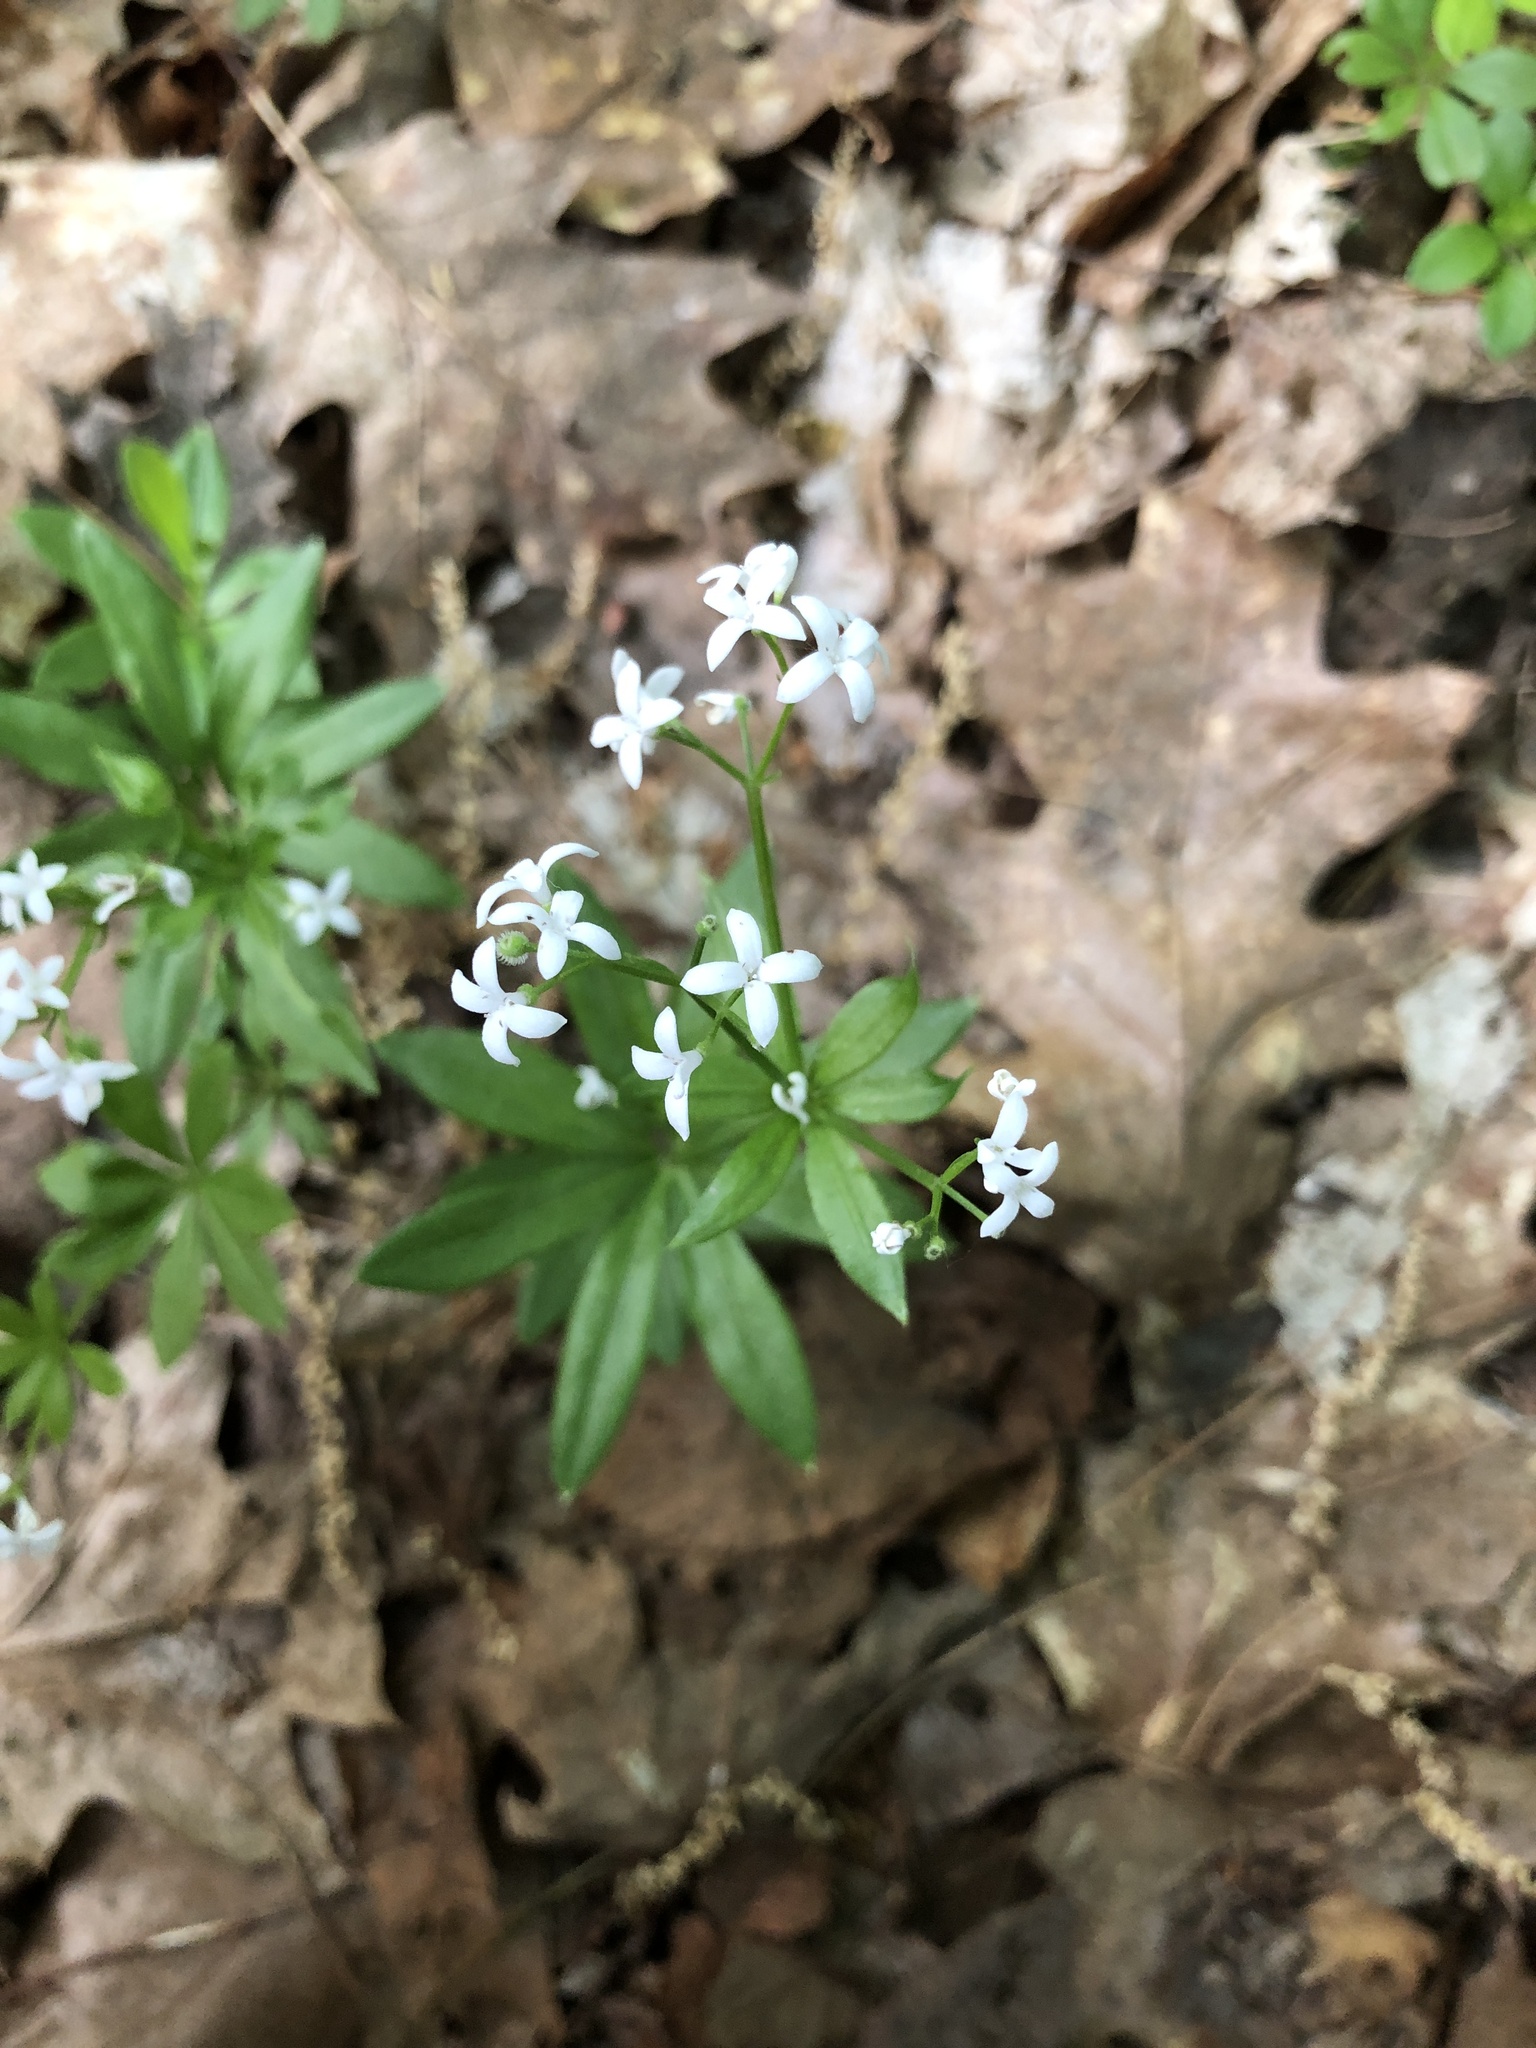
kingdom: Plantae
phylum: Tracheophyta
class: Magnoliopsida
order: Gentianales
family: Rubiaceae
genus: Galium
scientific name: Galium odoratum
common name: Sweet woodruff
